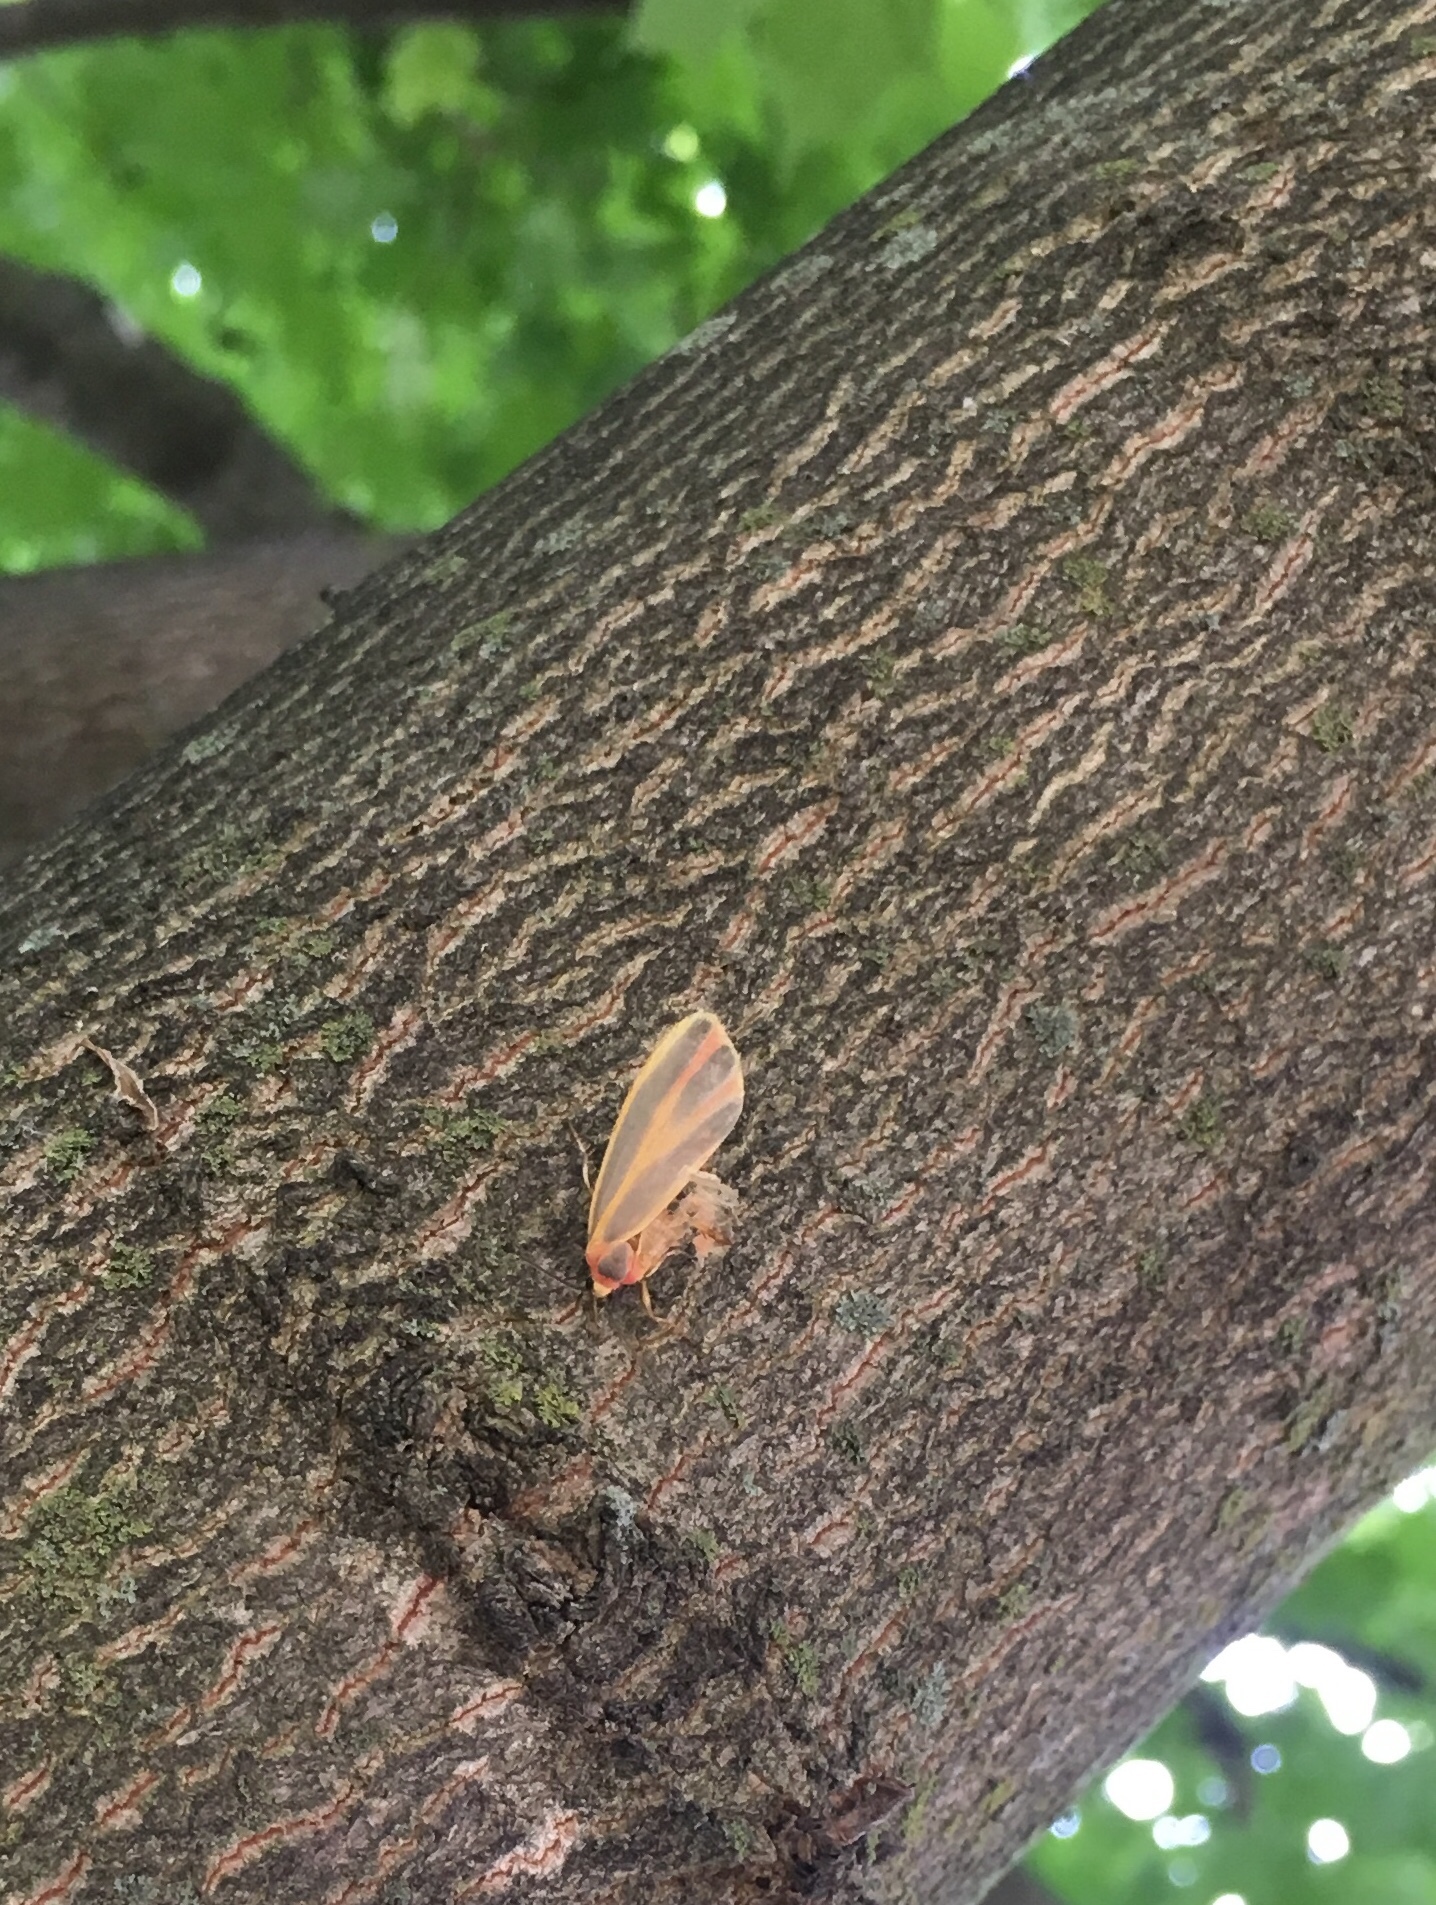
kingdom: Animalia
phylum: Arthropoda
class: Insecta
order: Lepidoptera
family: Erebidae
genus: Hypoprepia
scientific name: Hypoprepia fucosa
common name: Painted lichen moth
